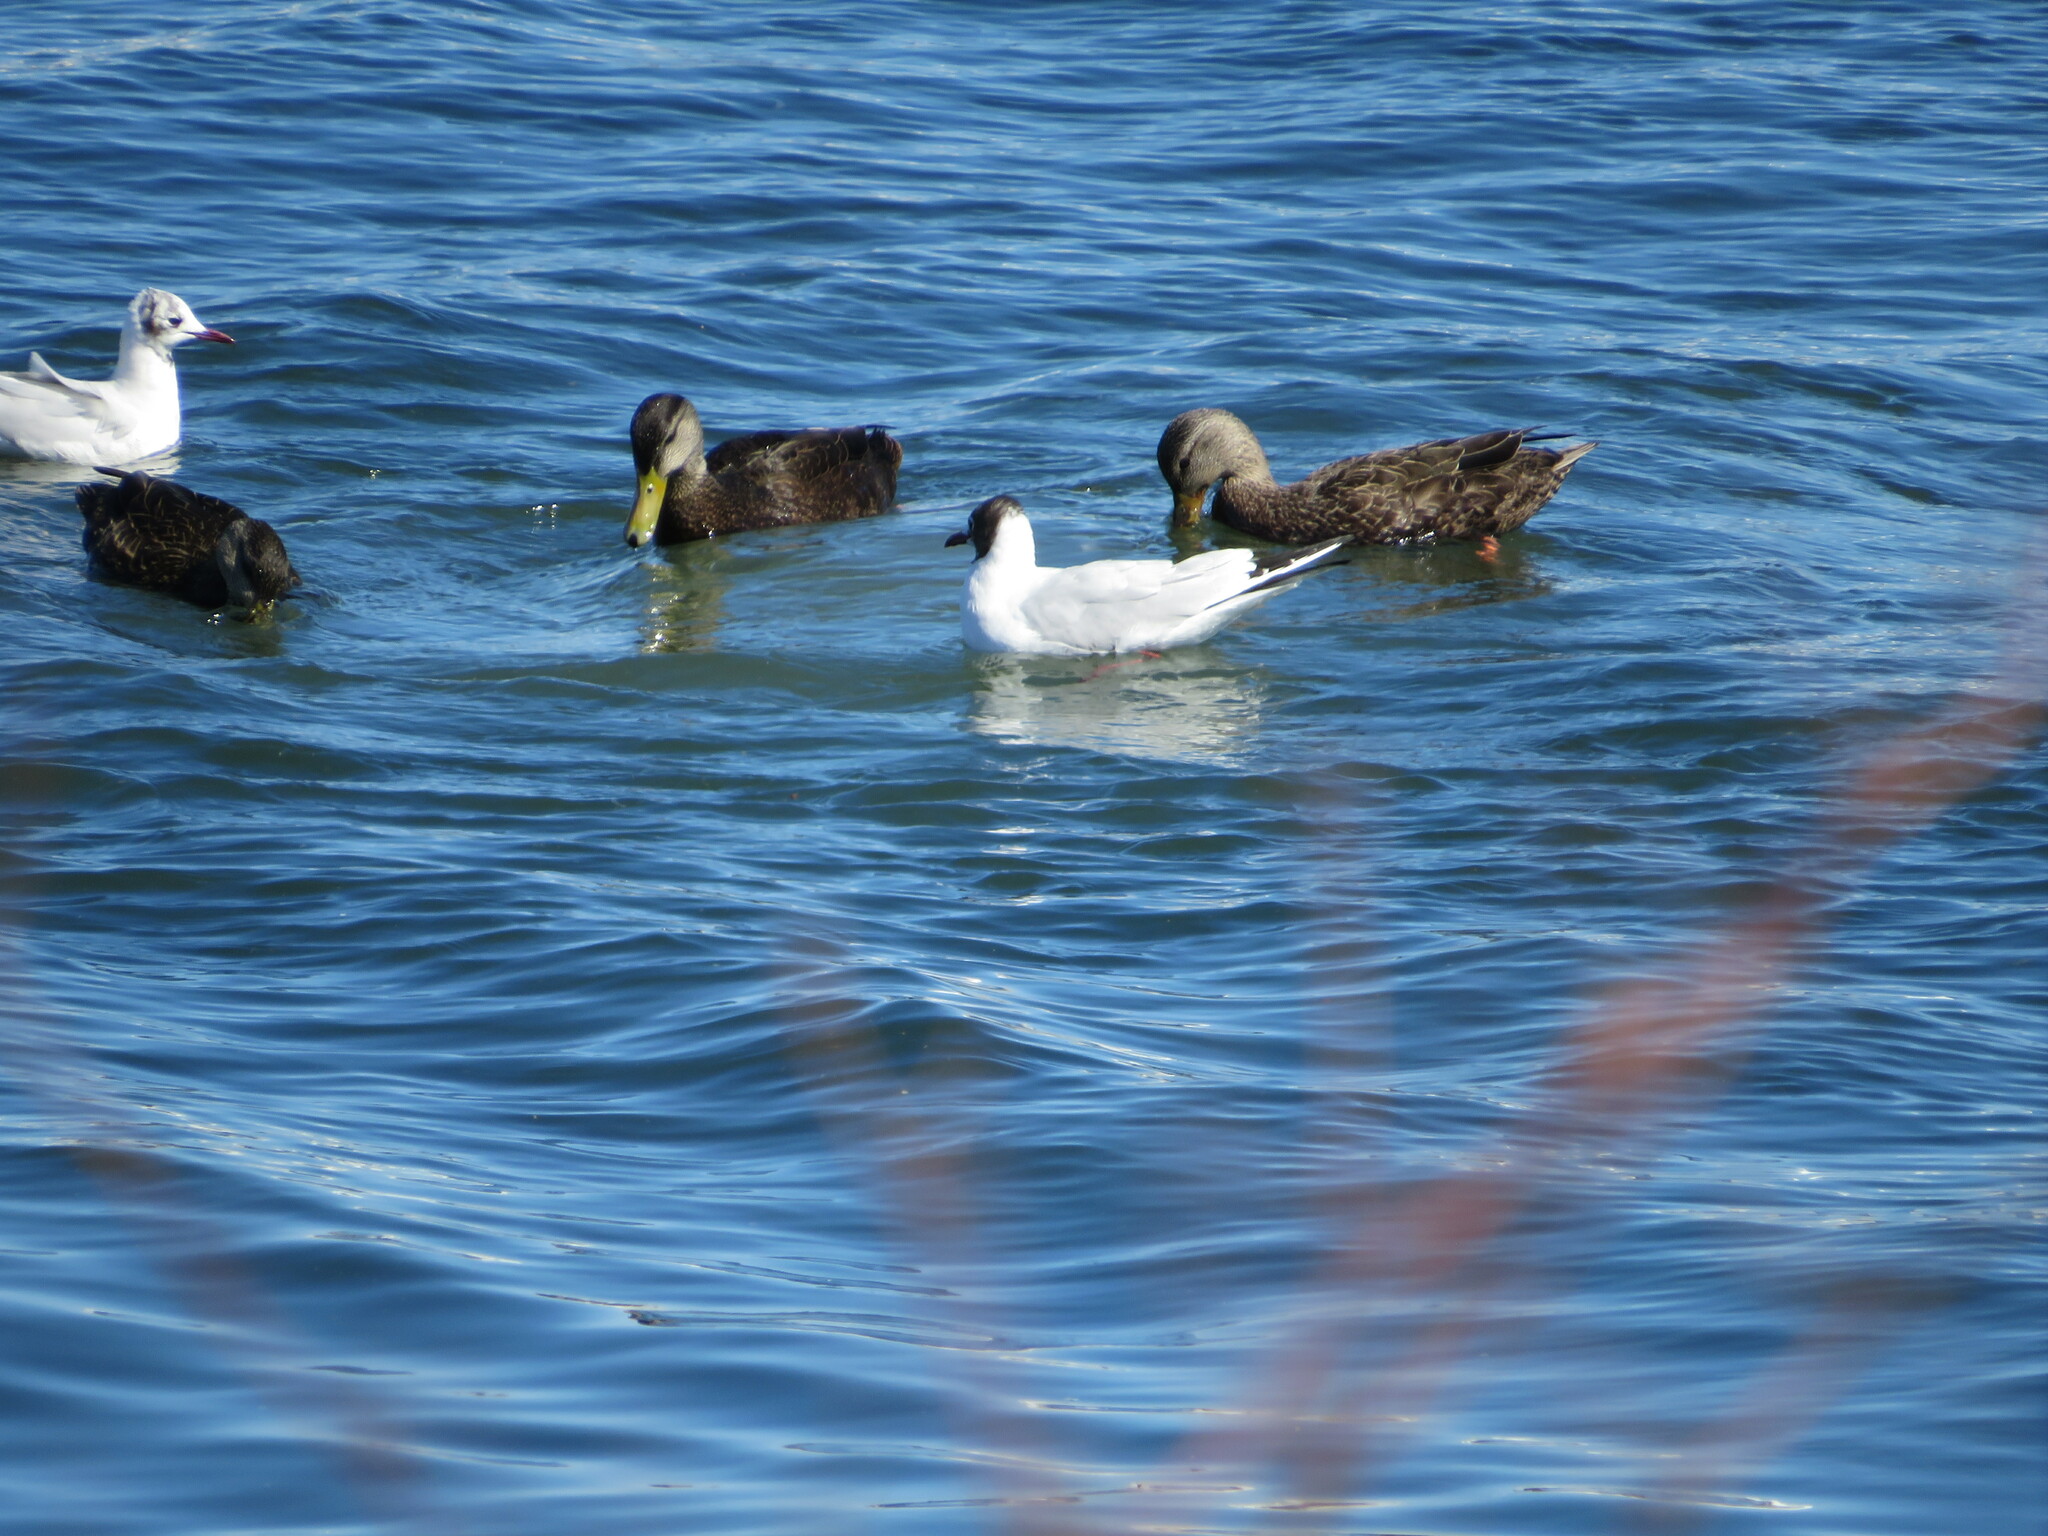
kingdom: Animalia
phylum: Chordata
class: Aves
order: Anseriformes
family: Anatidae
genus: Anas
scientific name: Anas rubripes
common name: American black duck
